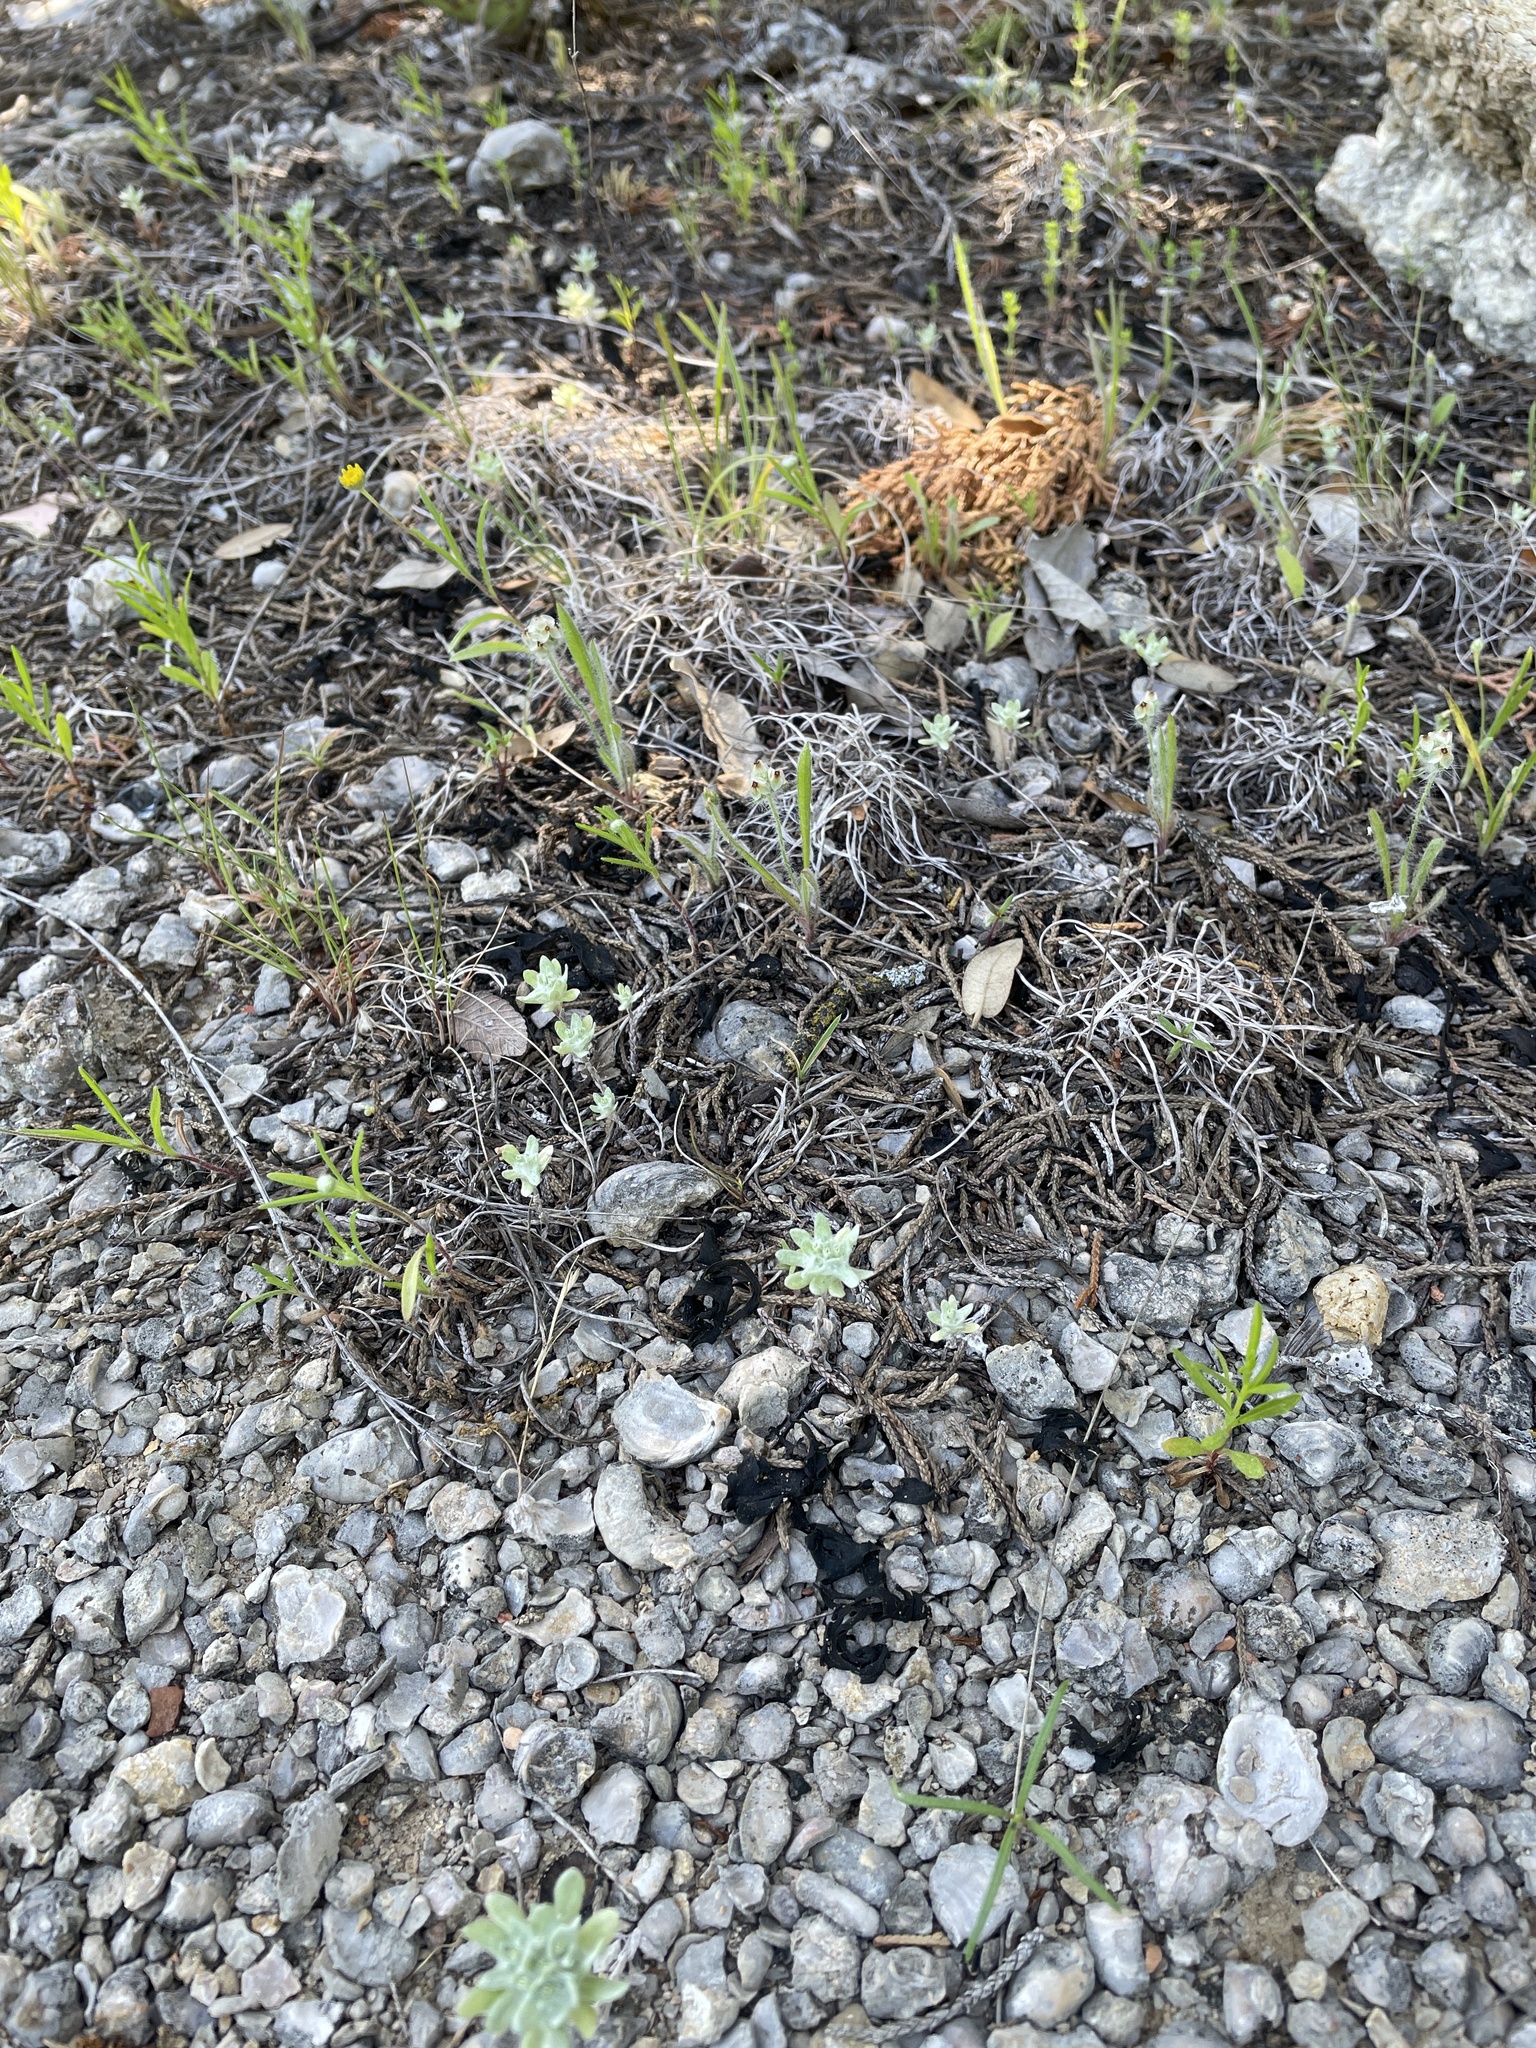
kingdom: Plantae
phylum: Tracheophyta
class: Magnoliopsida
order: Asterales
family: Asteraceae
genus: Diaperia
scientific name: Diaperia prolifera
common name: Big-head rabbit-tobacco
